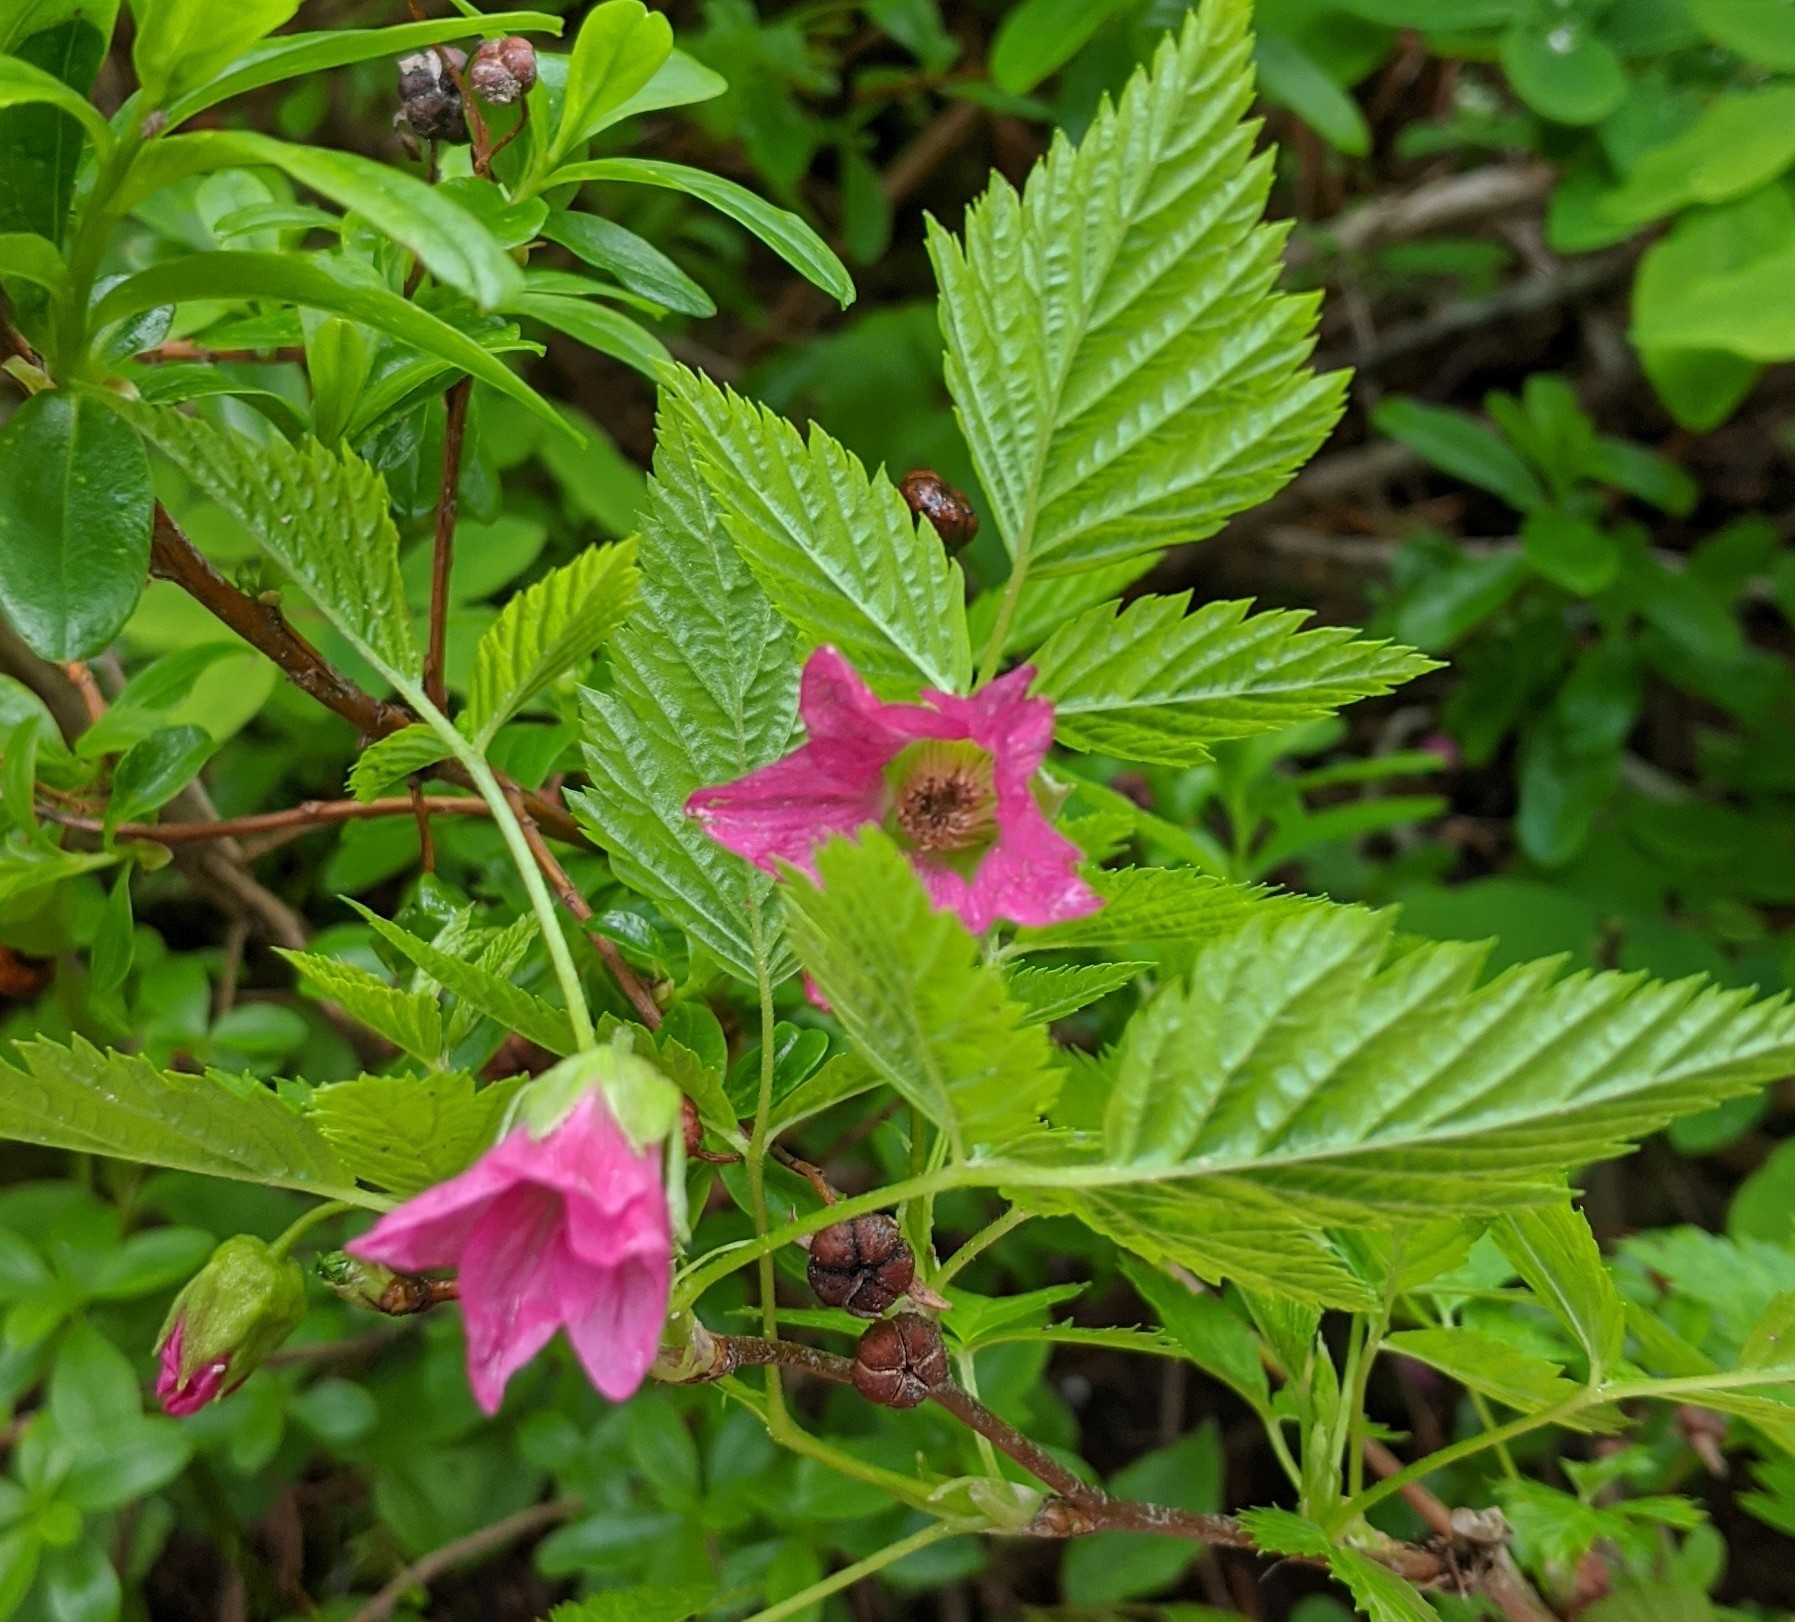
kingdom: Plantae
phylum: Tracheophyta
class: Magnoliopsida
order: Rosales
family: Rosaceae
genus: Rubus
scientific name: Rubus spectabilis
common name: Salmonberry
